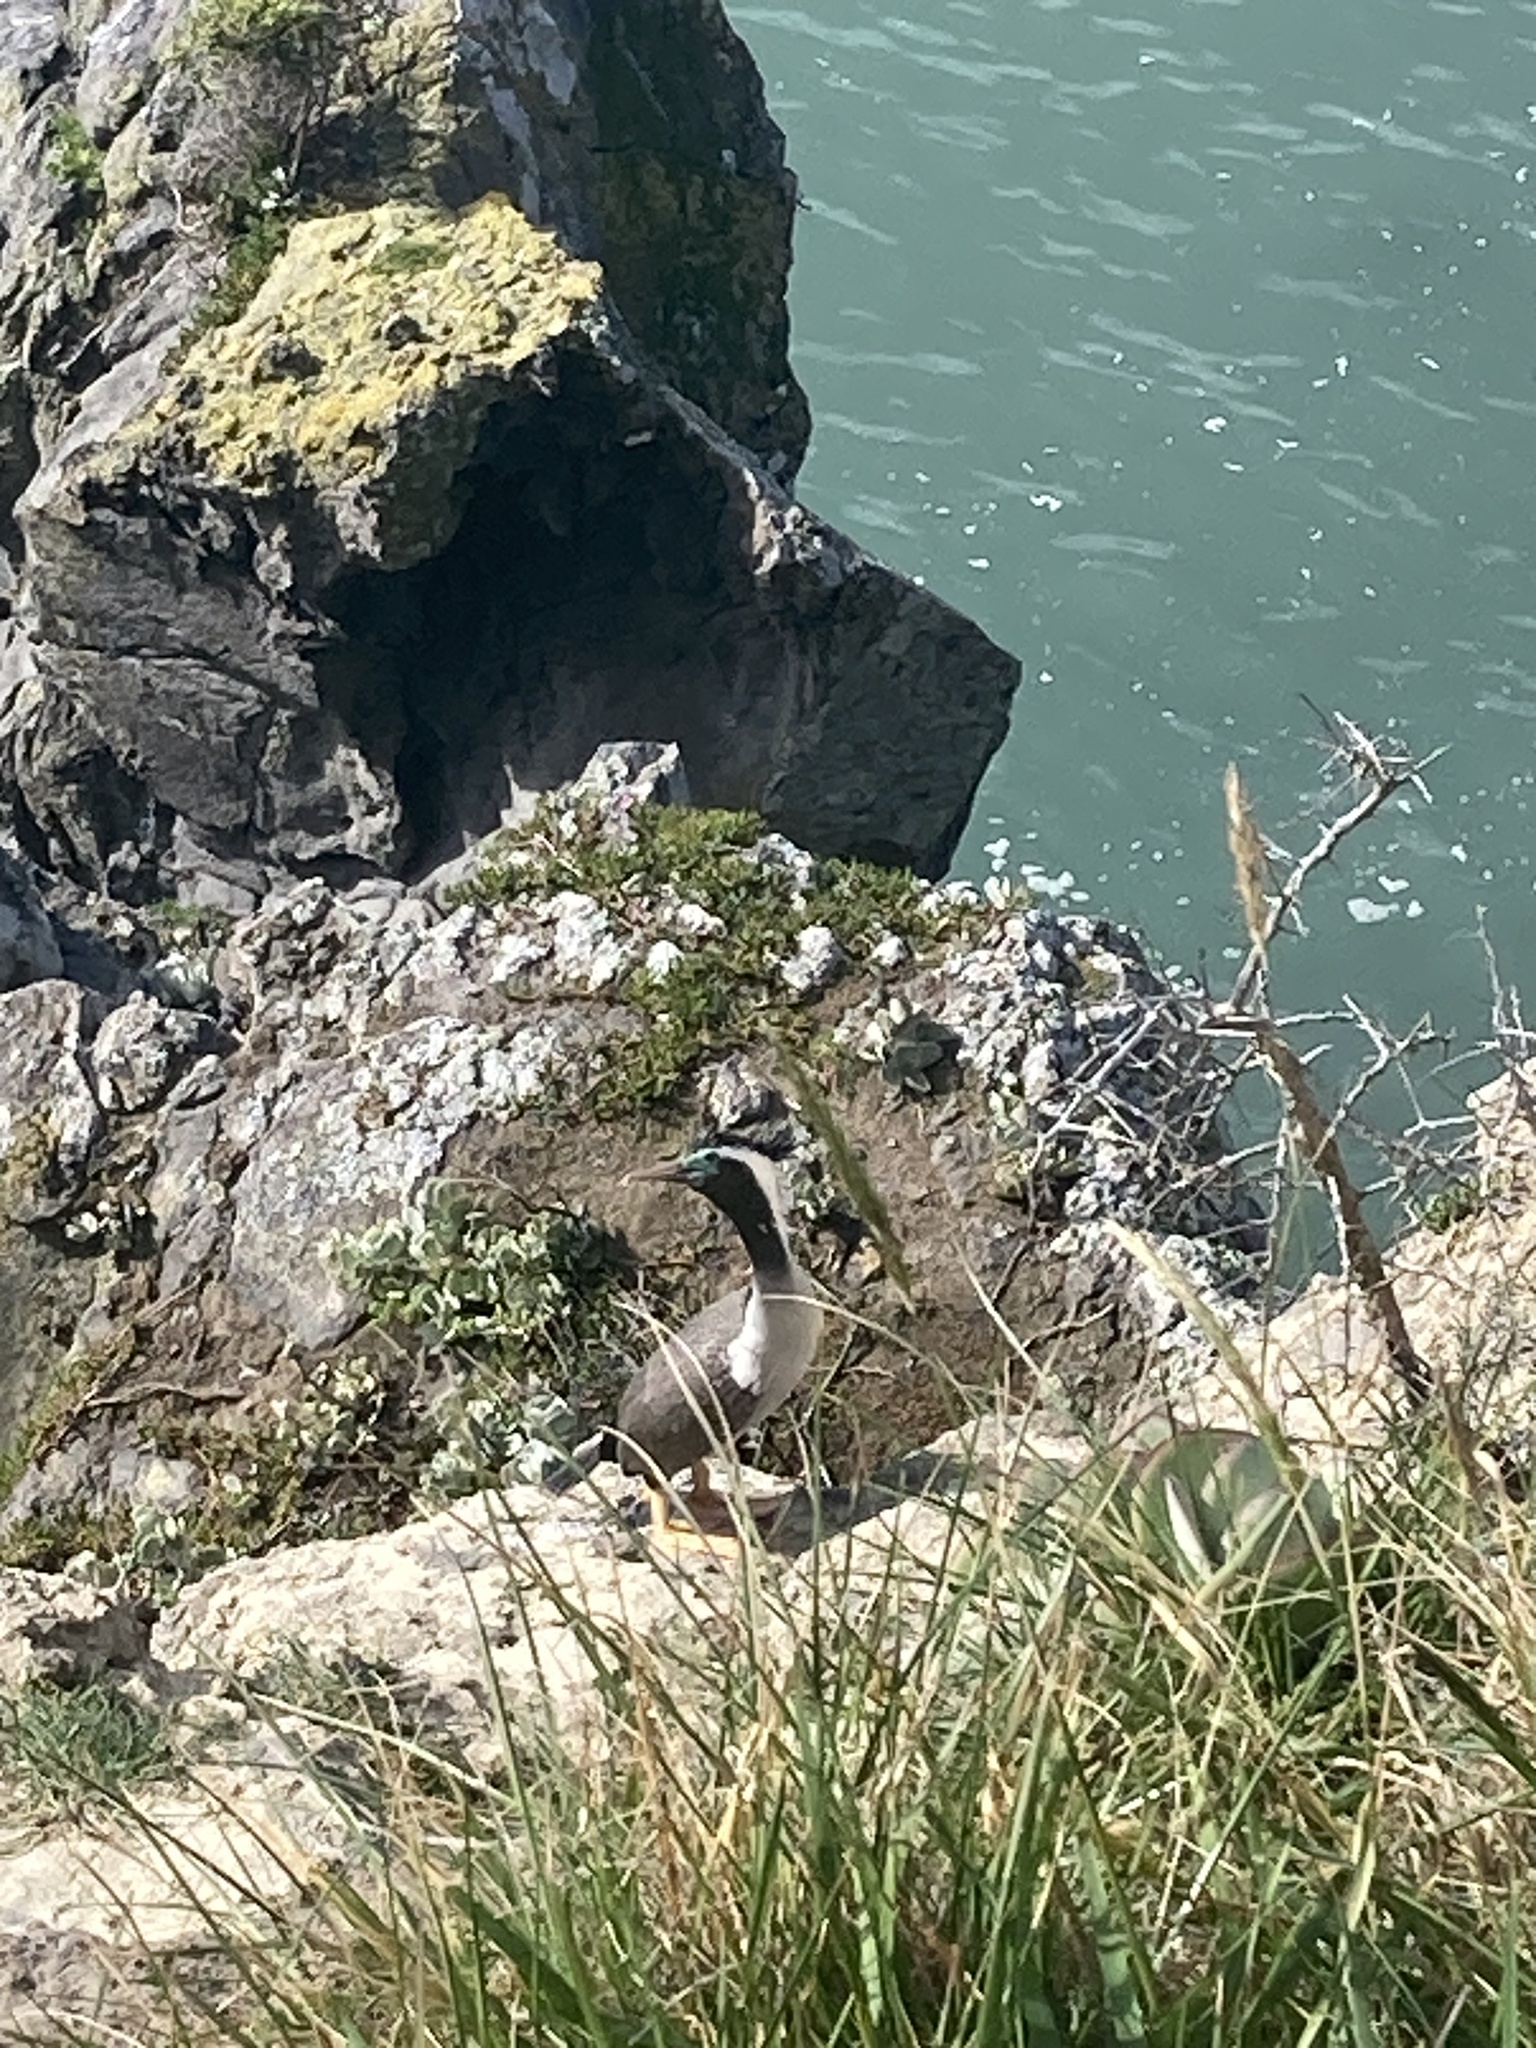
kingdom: Animalia
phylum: Chordata
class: Aves
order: Suliformes
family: Phalacrocoracidae
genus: Phalacrocorax
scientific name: Phalacrocorax punctatus
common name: Spotted shag
